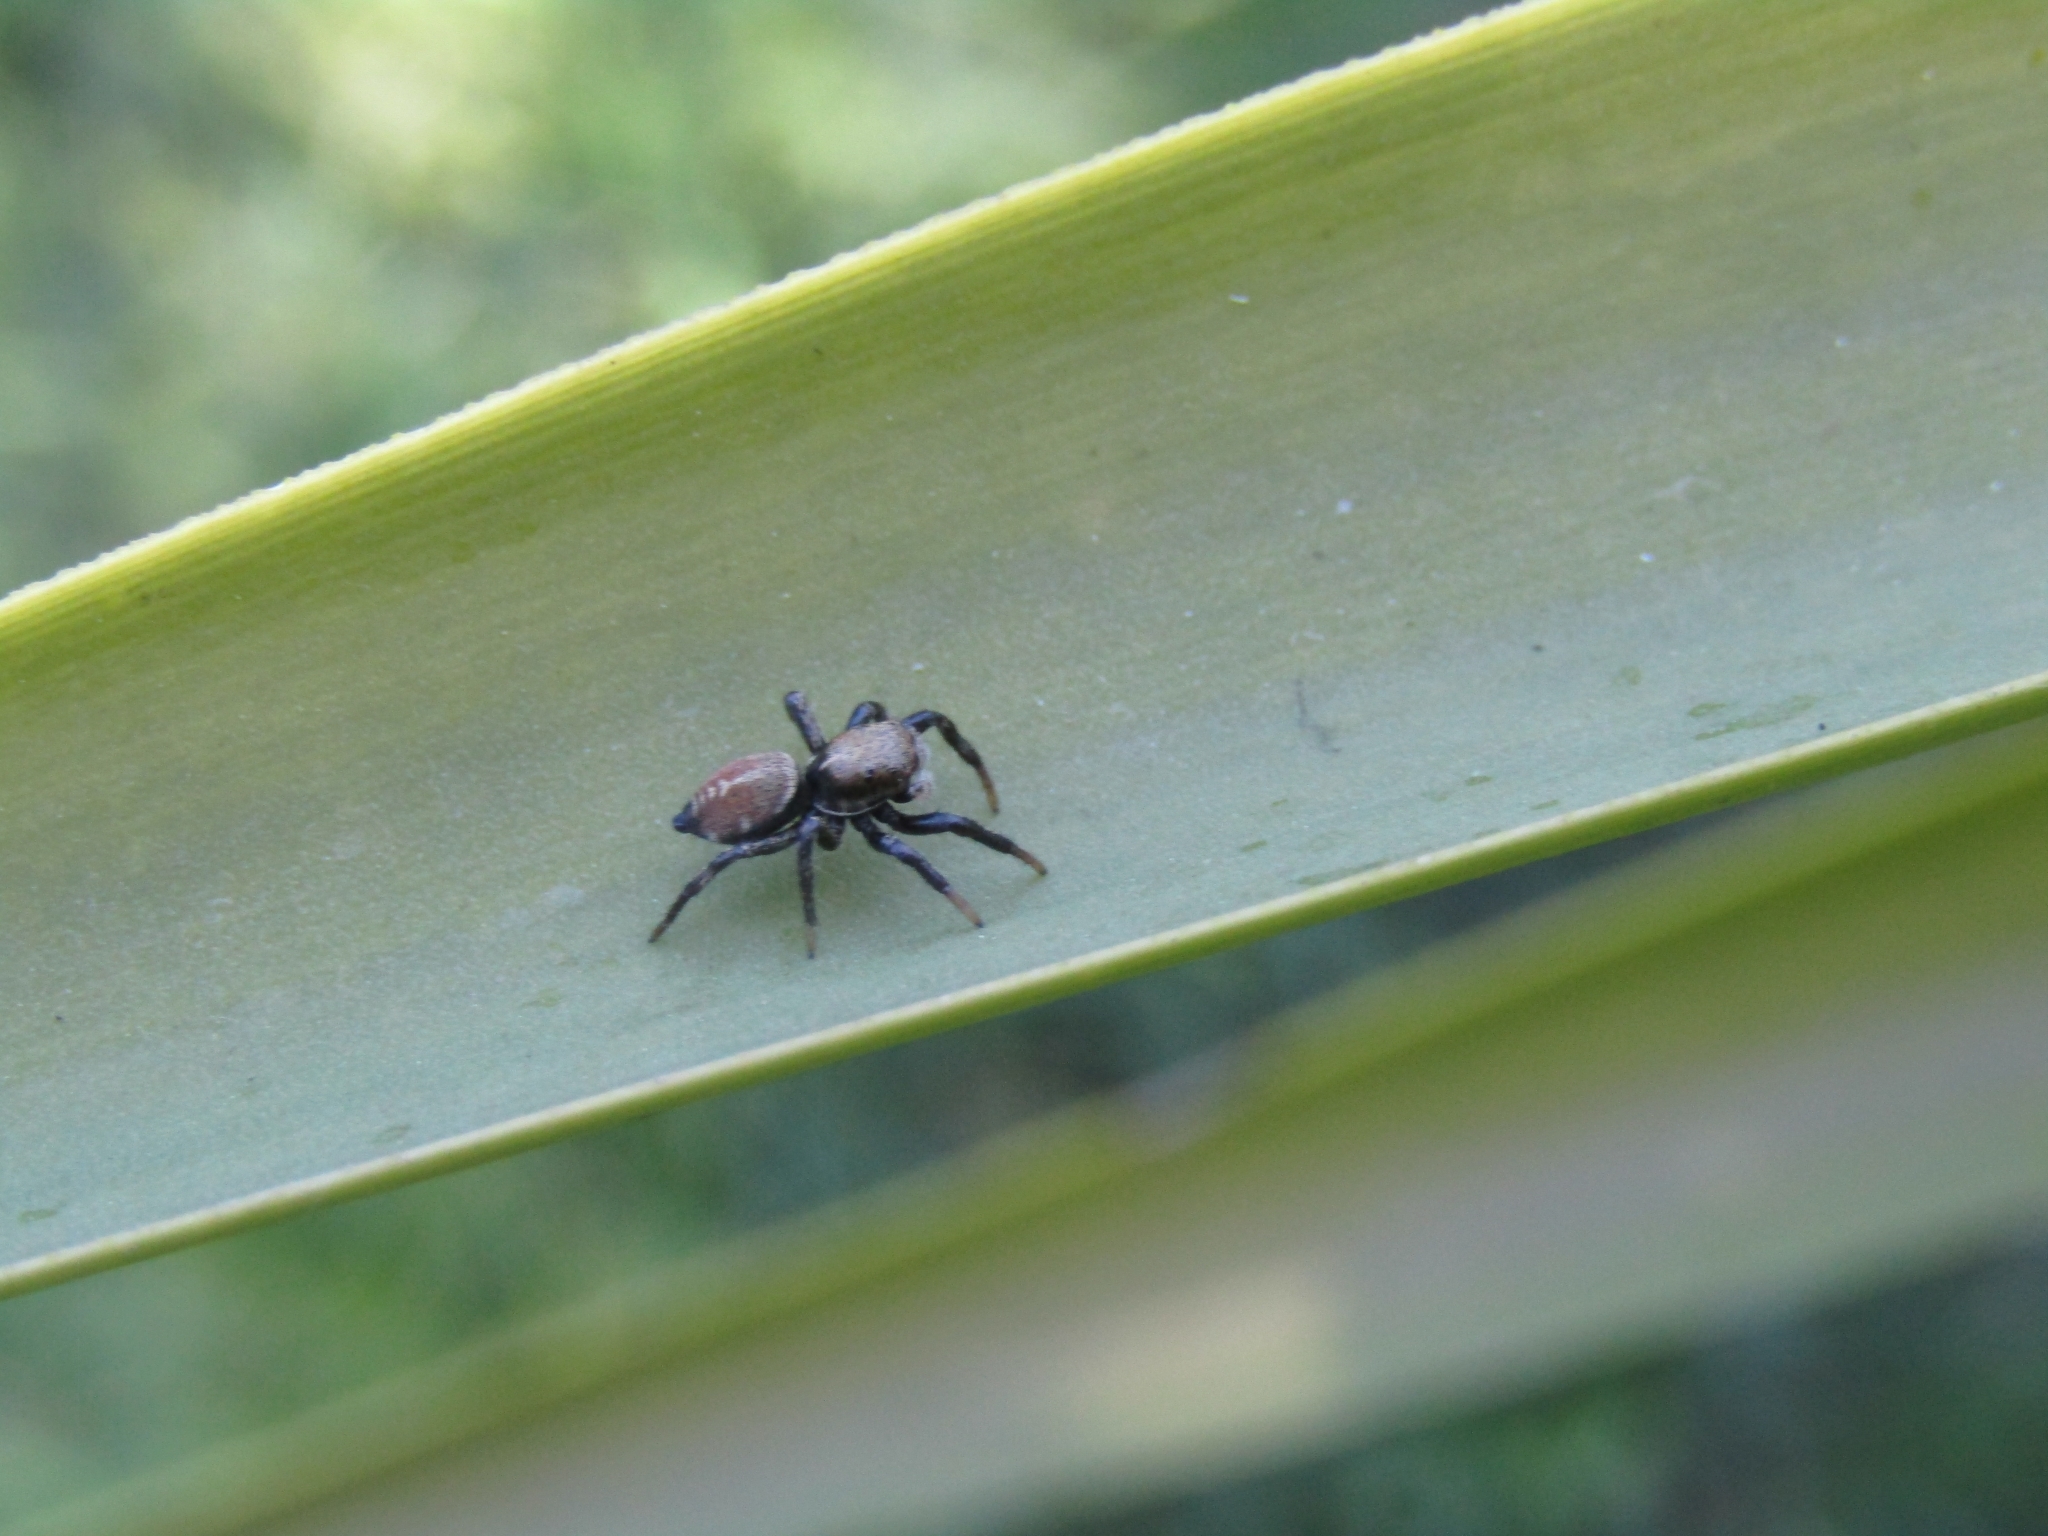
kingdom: Animalia
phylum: Arthropoda
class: Arachnida
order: Araneae
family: Salticidae
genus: Phiale
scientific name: Phiale roburifoliata
